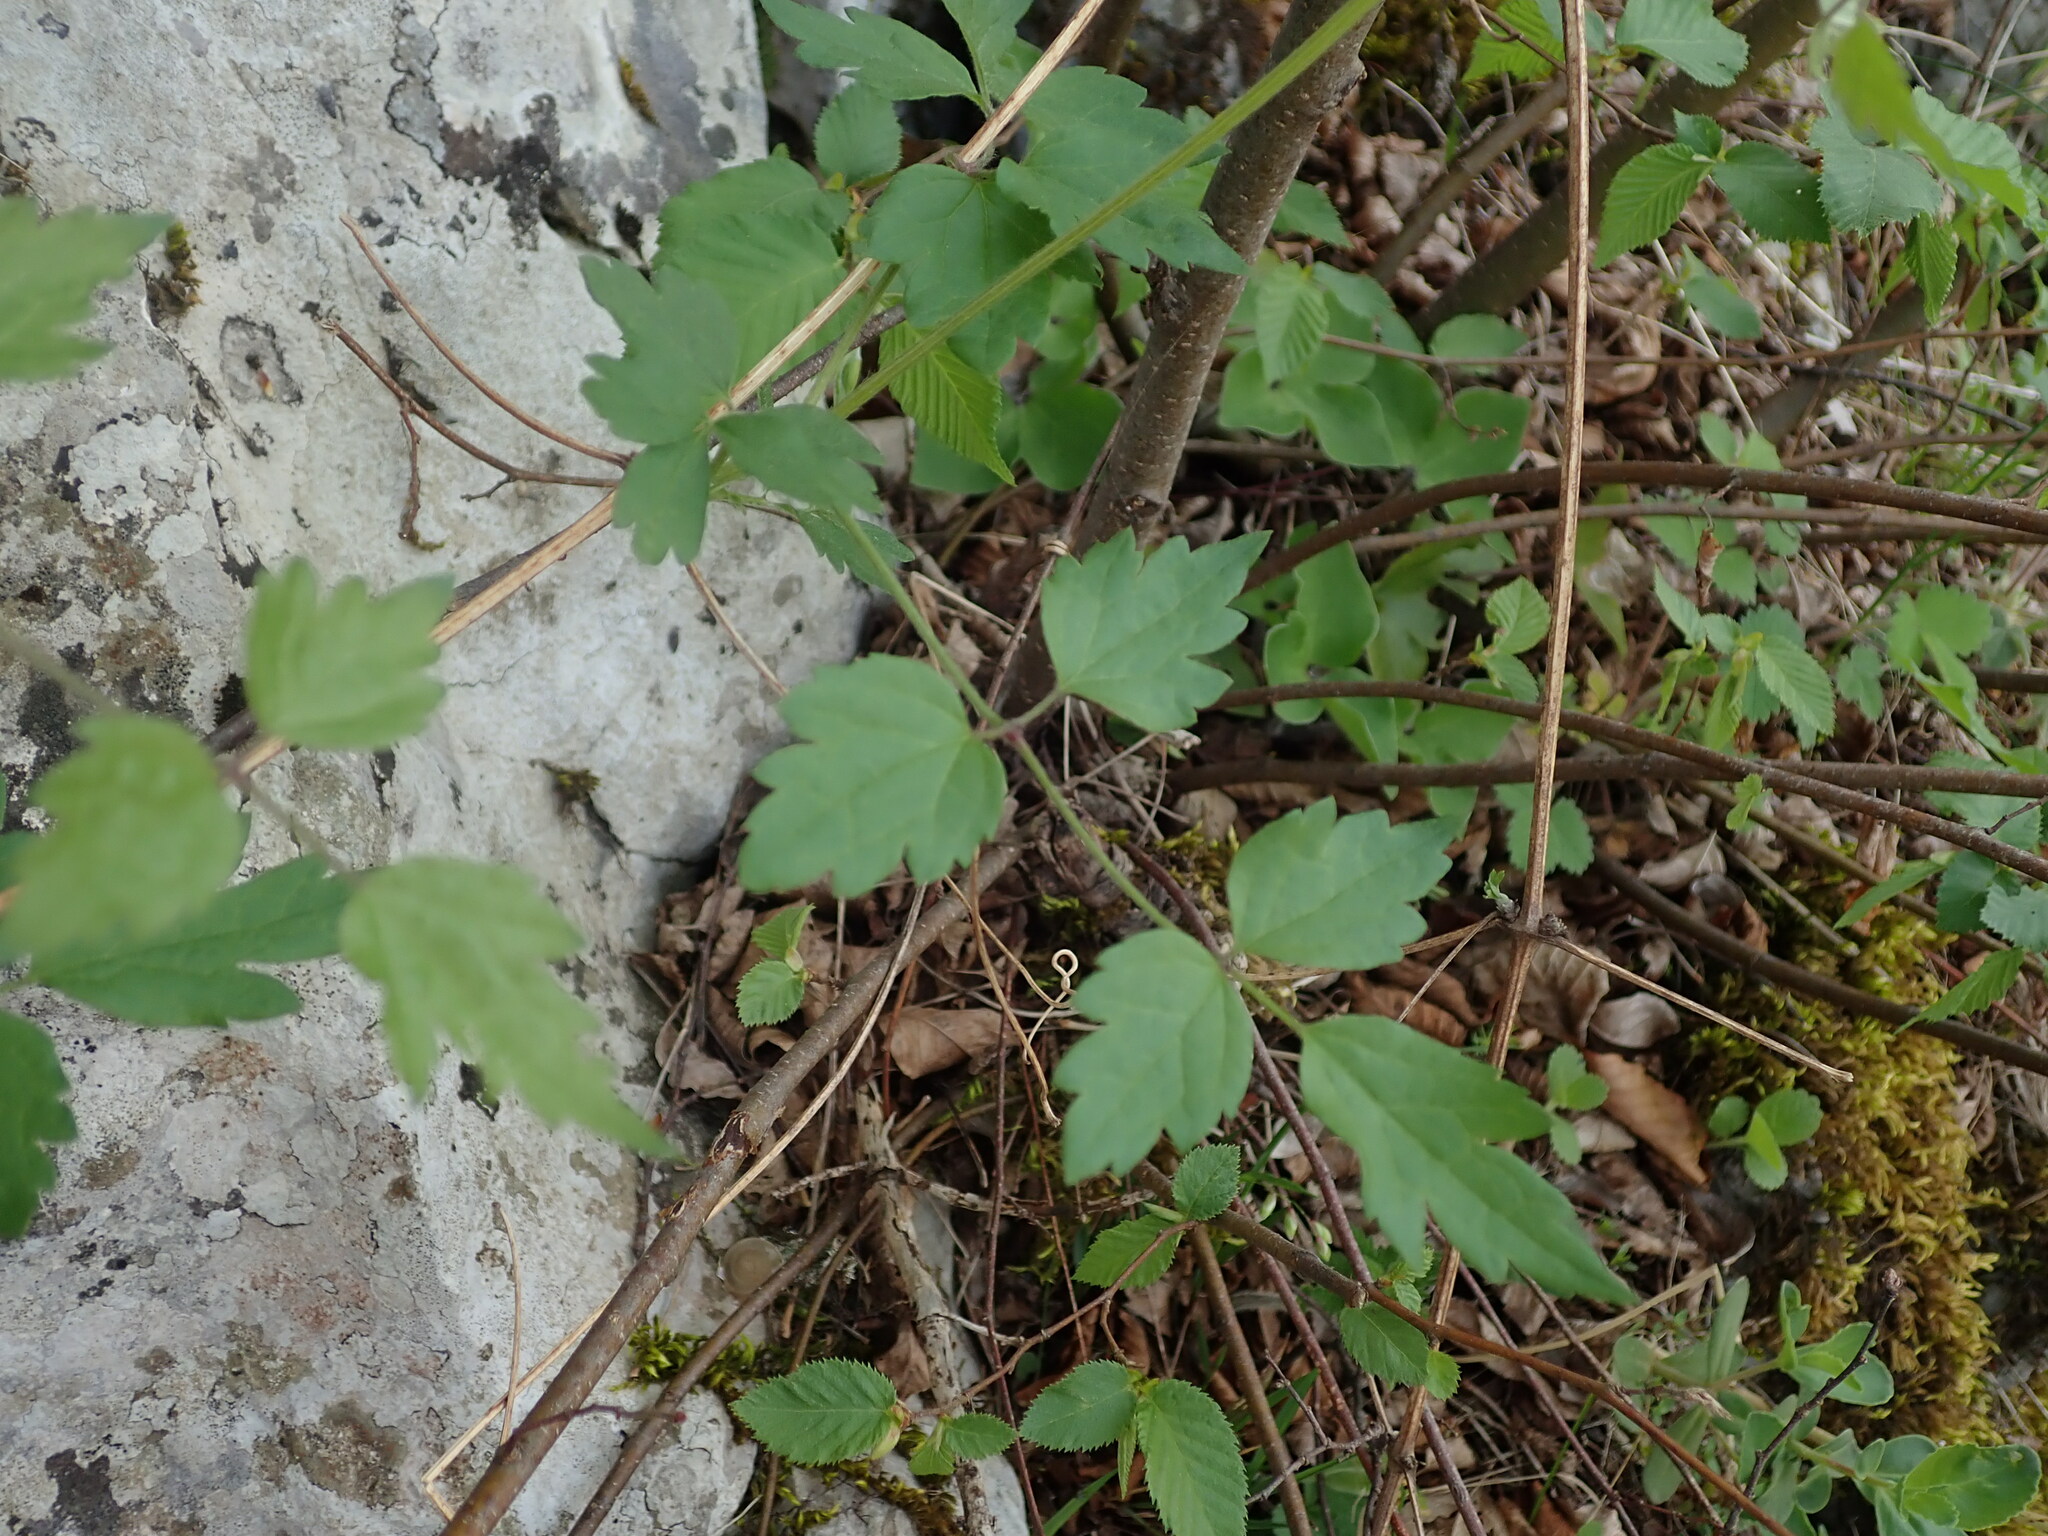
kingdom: Plantae
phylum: Tracheophyta
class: Magnoliopsida
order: Ranunculales
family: Ranunculaceae
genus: Clematis
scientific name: Clematis vitalba
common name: Evergreen clematis
